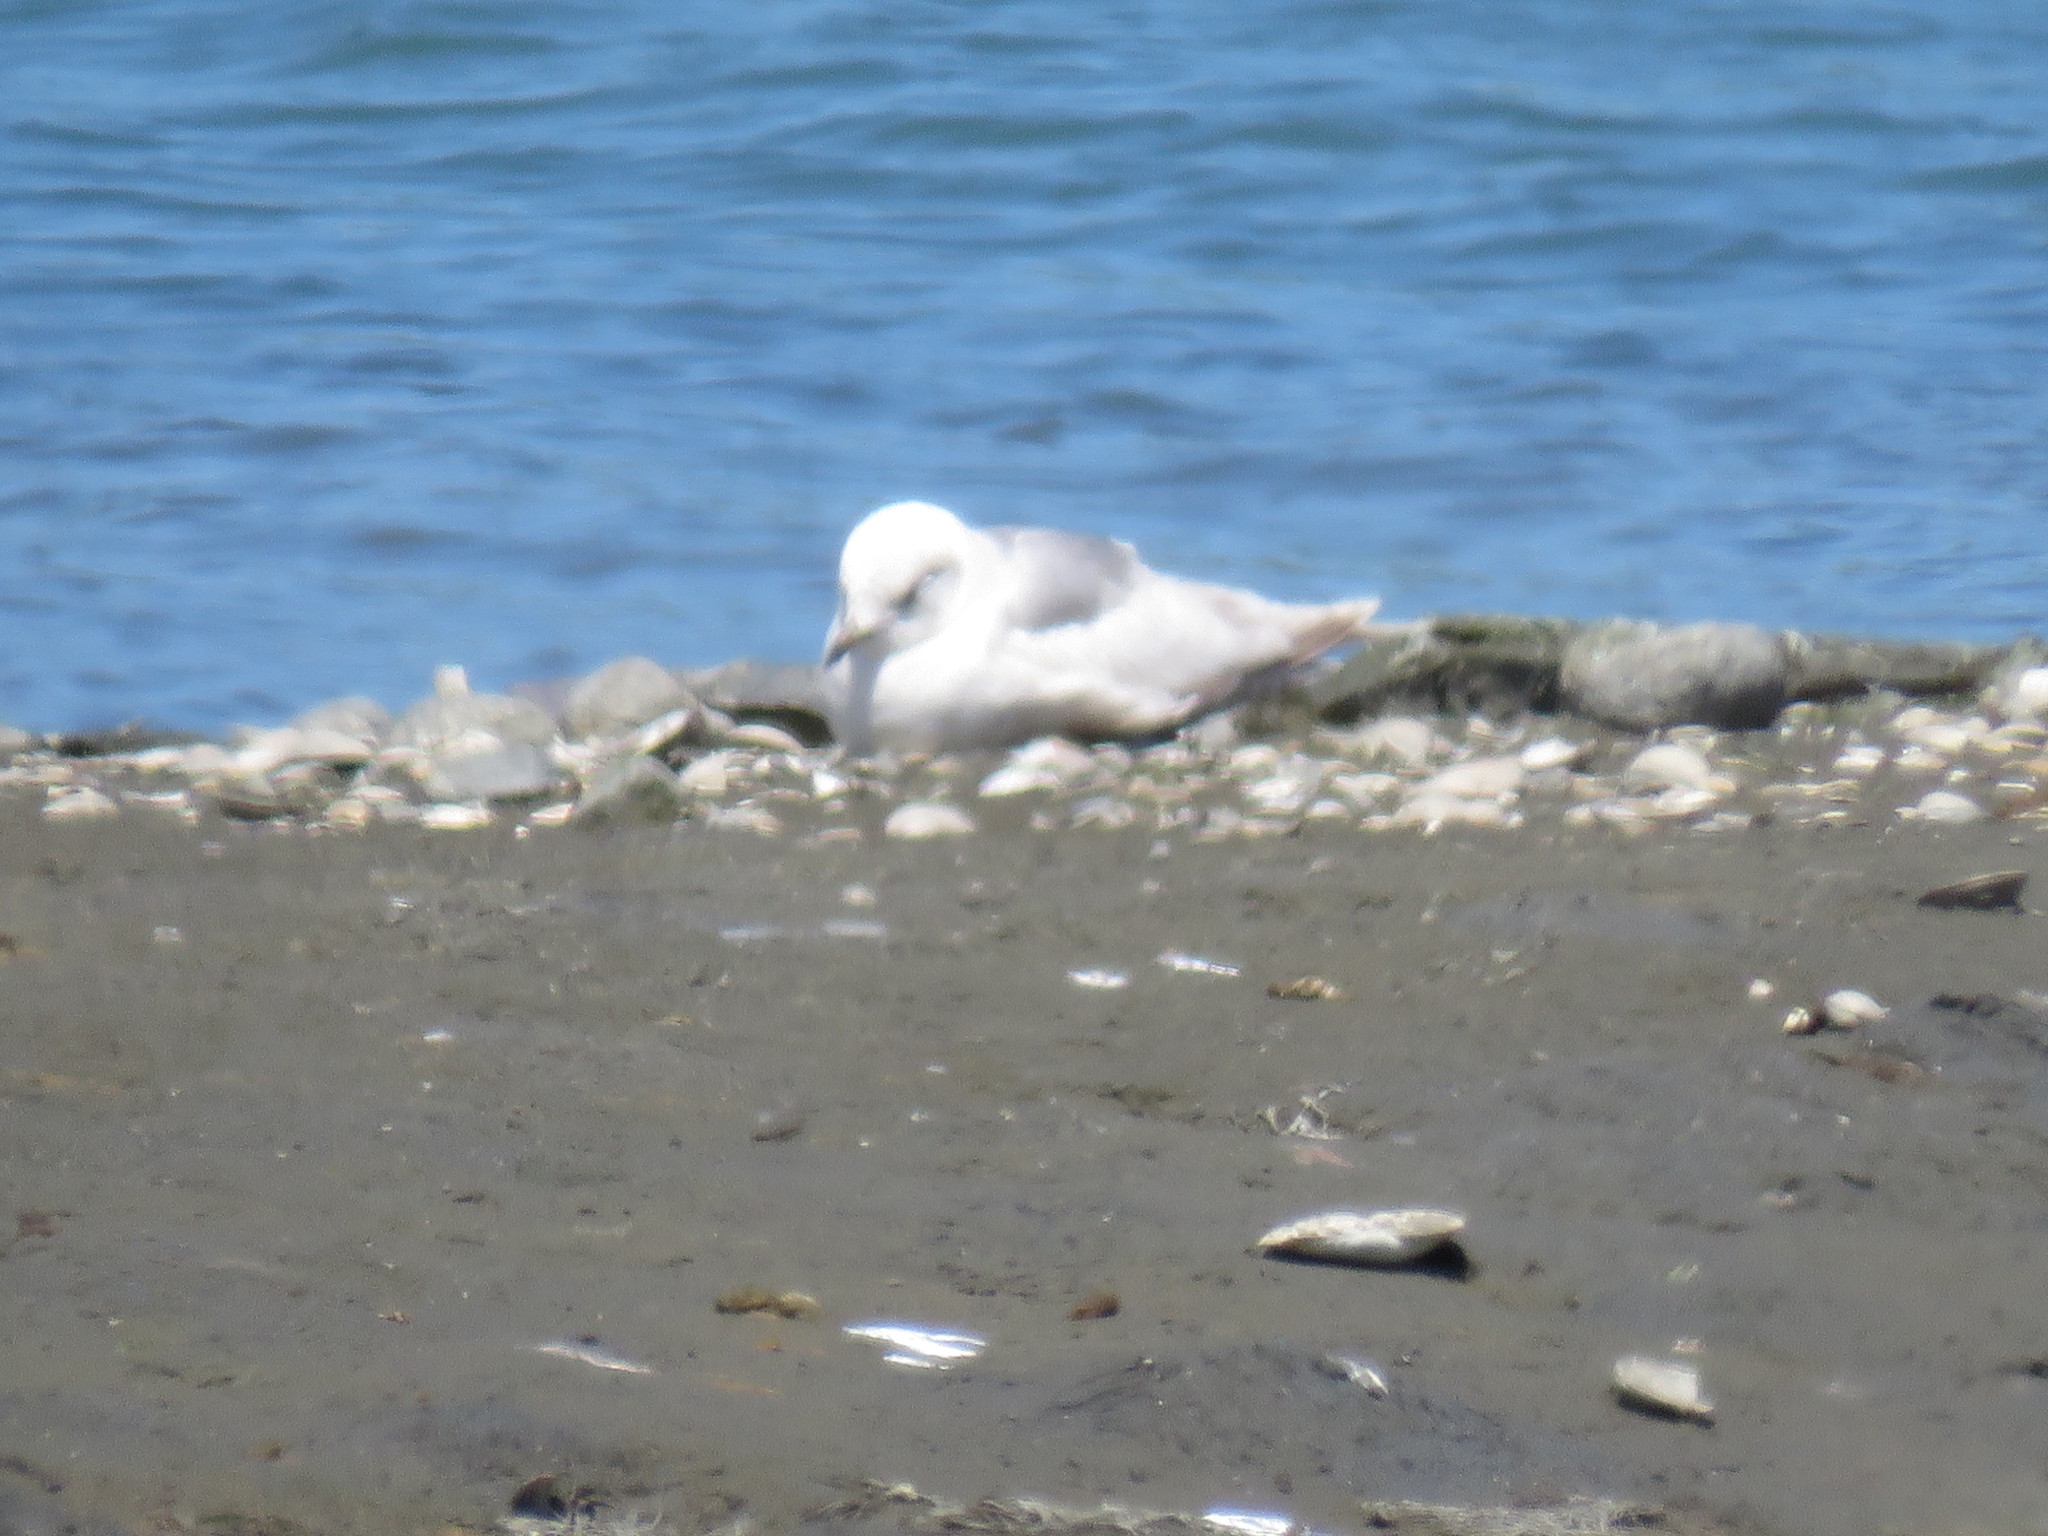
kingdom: Animalia
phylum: Chordata
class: Aves
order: Charadriiformes
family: Laridae
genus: Larus
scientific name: Larus brachyrhynchus
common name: Short-billed gull
